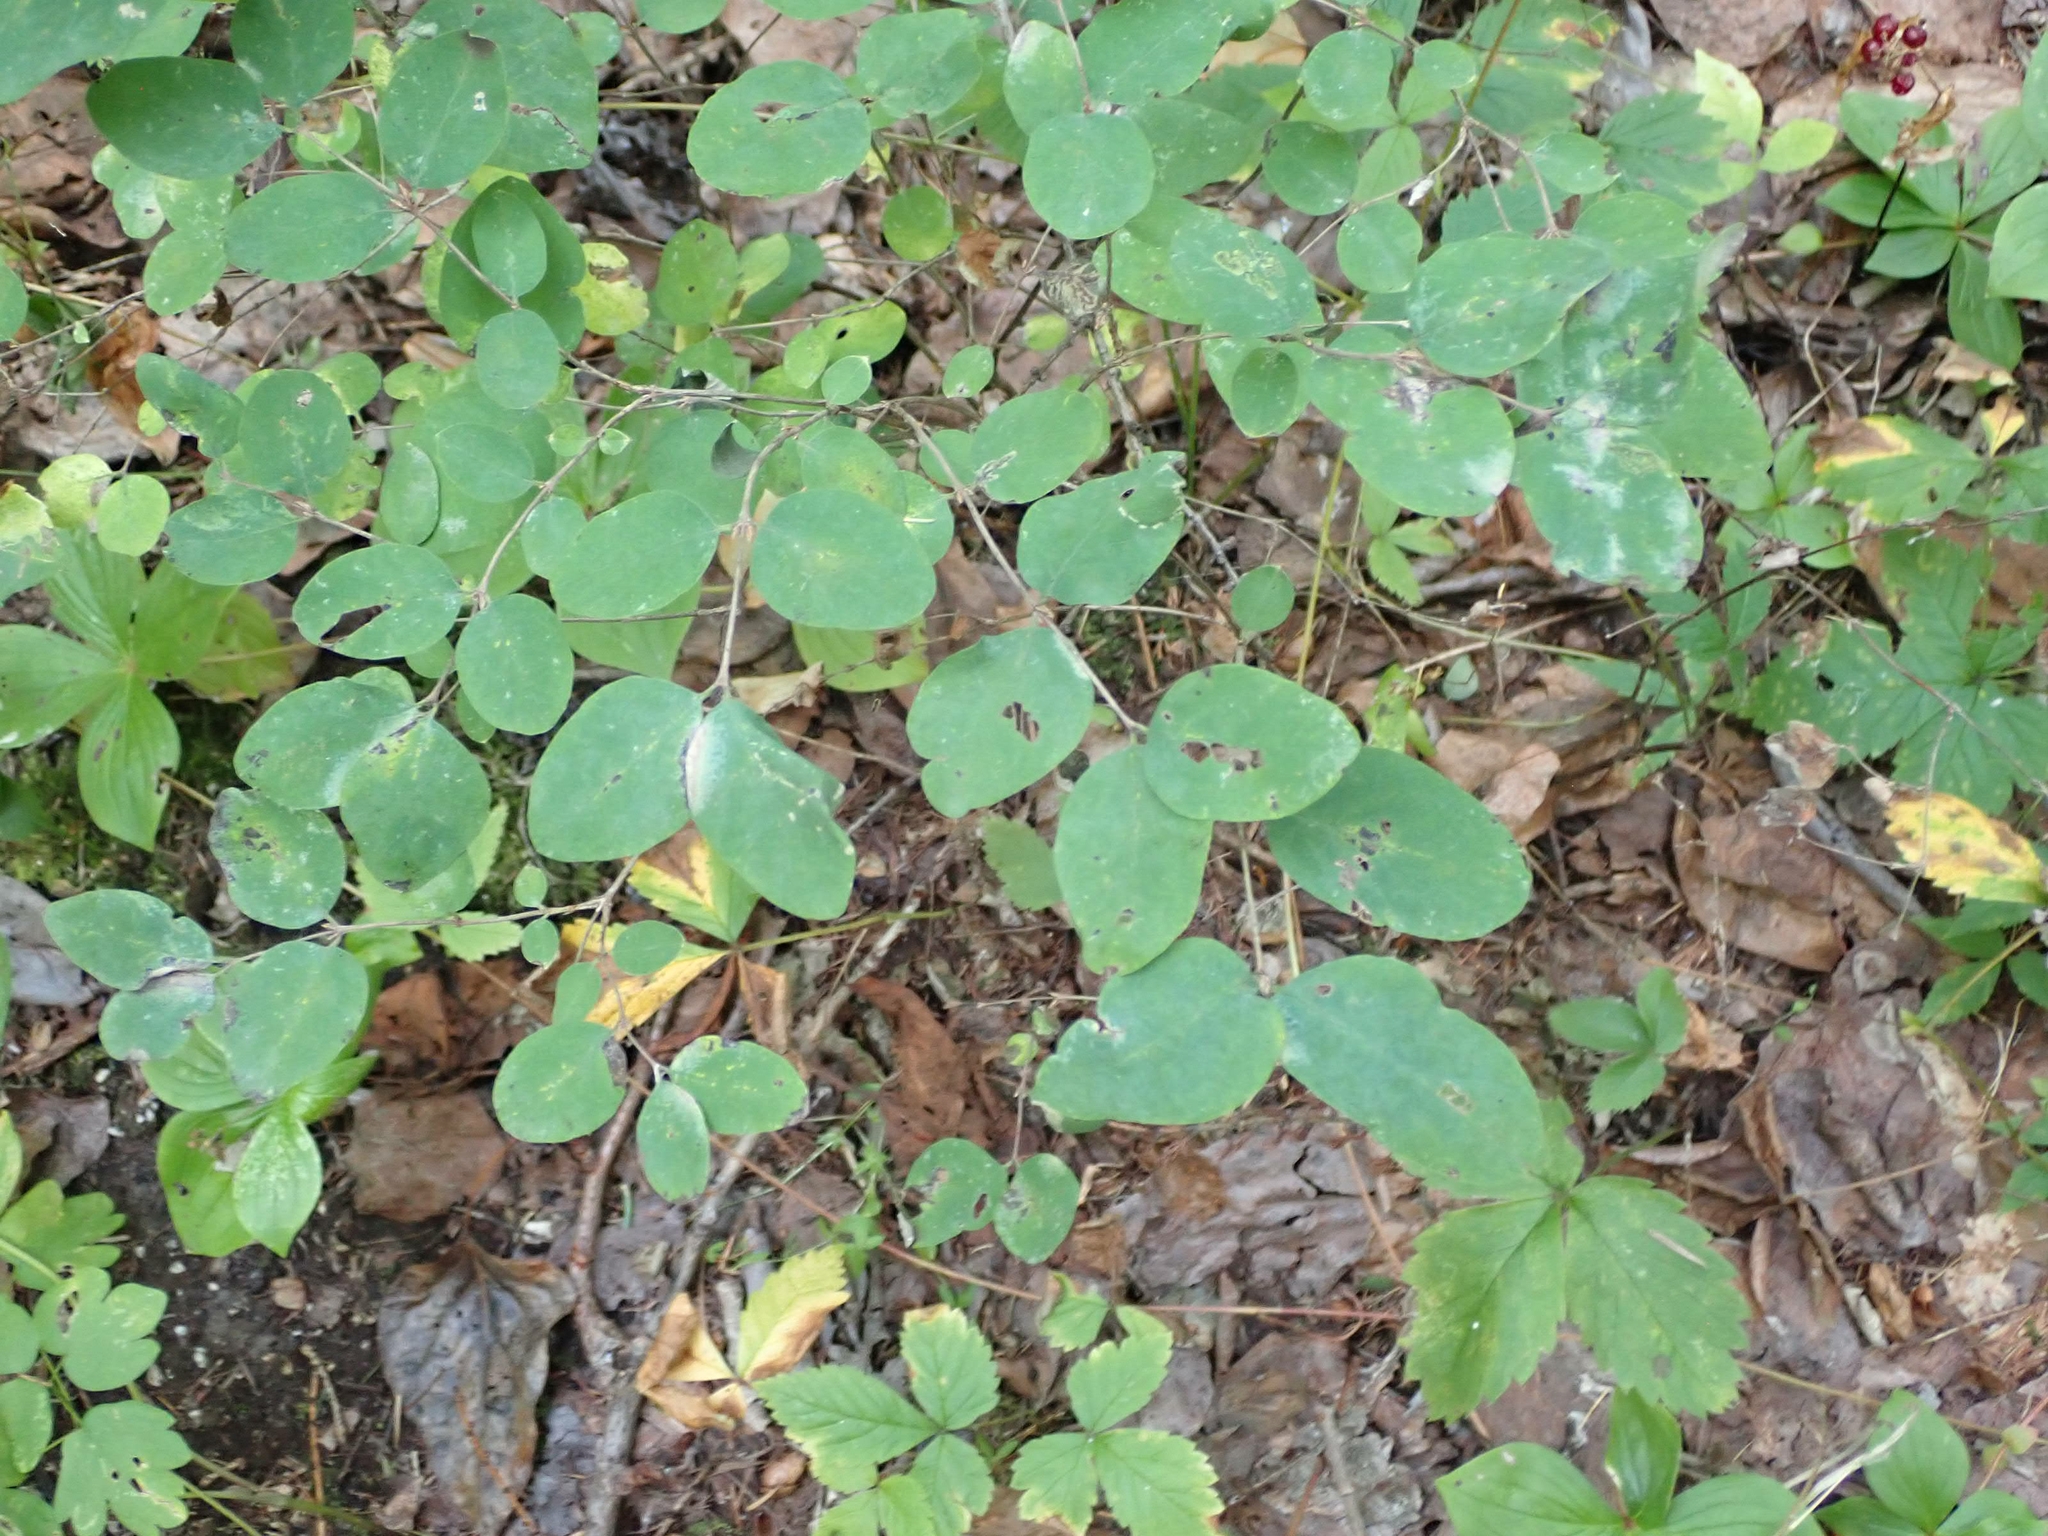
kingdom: Plantae
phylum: Tracheophyta
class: Magnoliopsida
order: Dipsacales
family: Caprifoliaceae
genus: Symphoricarpos
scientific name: Symphoricarpos occidentalis
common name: Wolfberry
